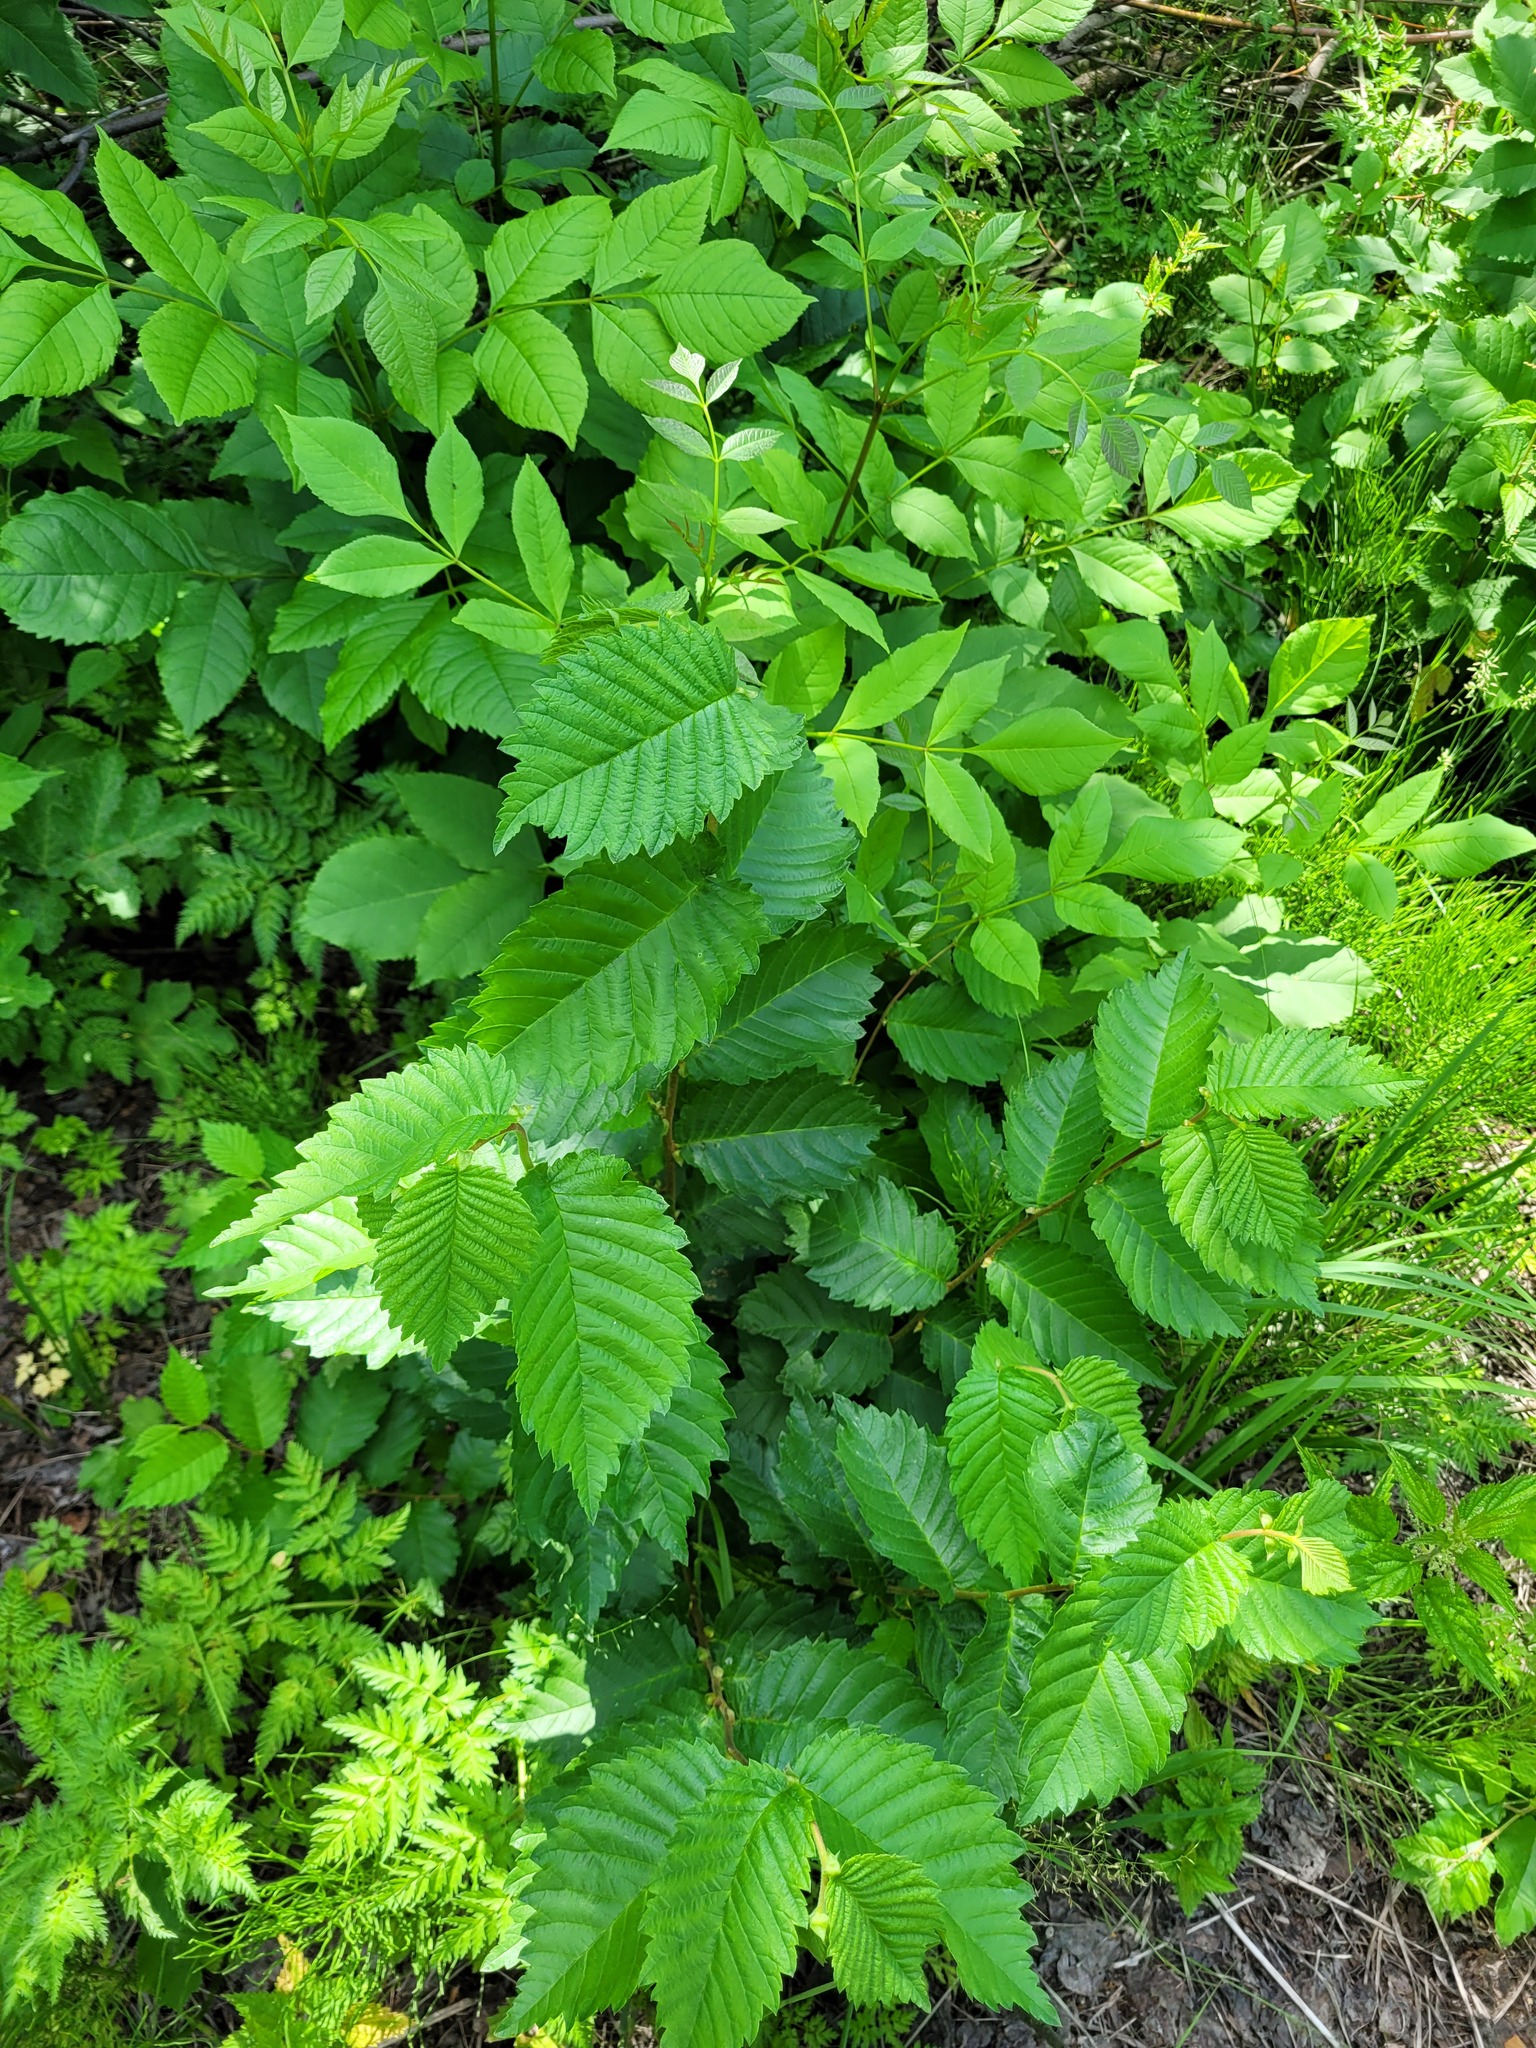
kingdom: Plantae
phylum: Tracheophyta
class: Magnoliopsida
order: Rosales
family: Ulmaceae
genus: Ulmus
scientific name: Ulmus laevis
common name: European white-elm
